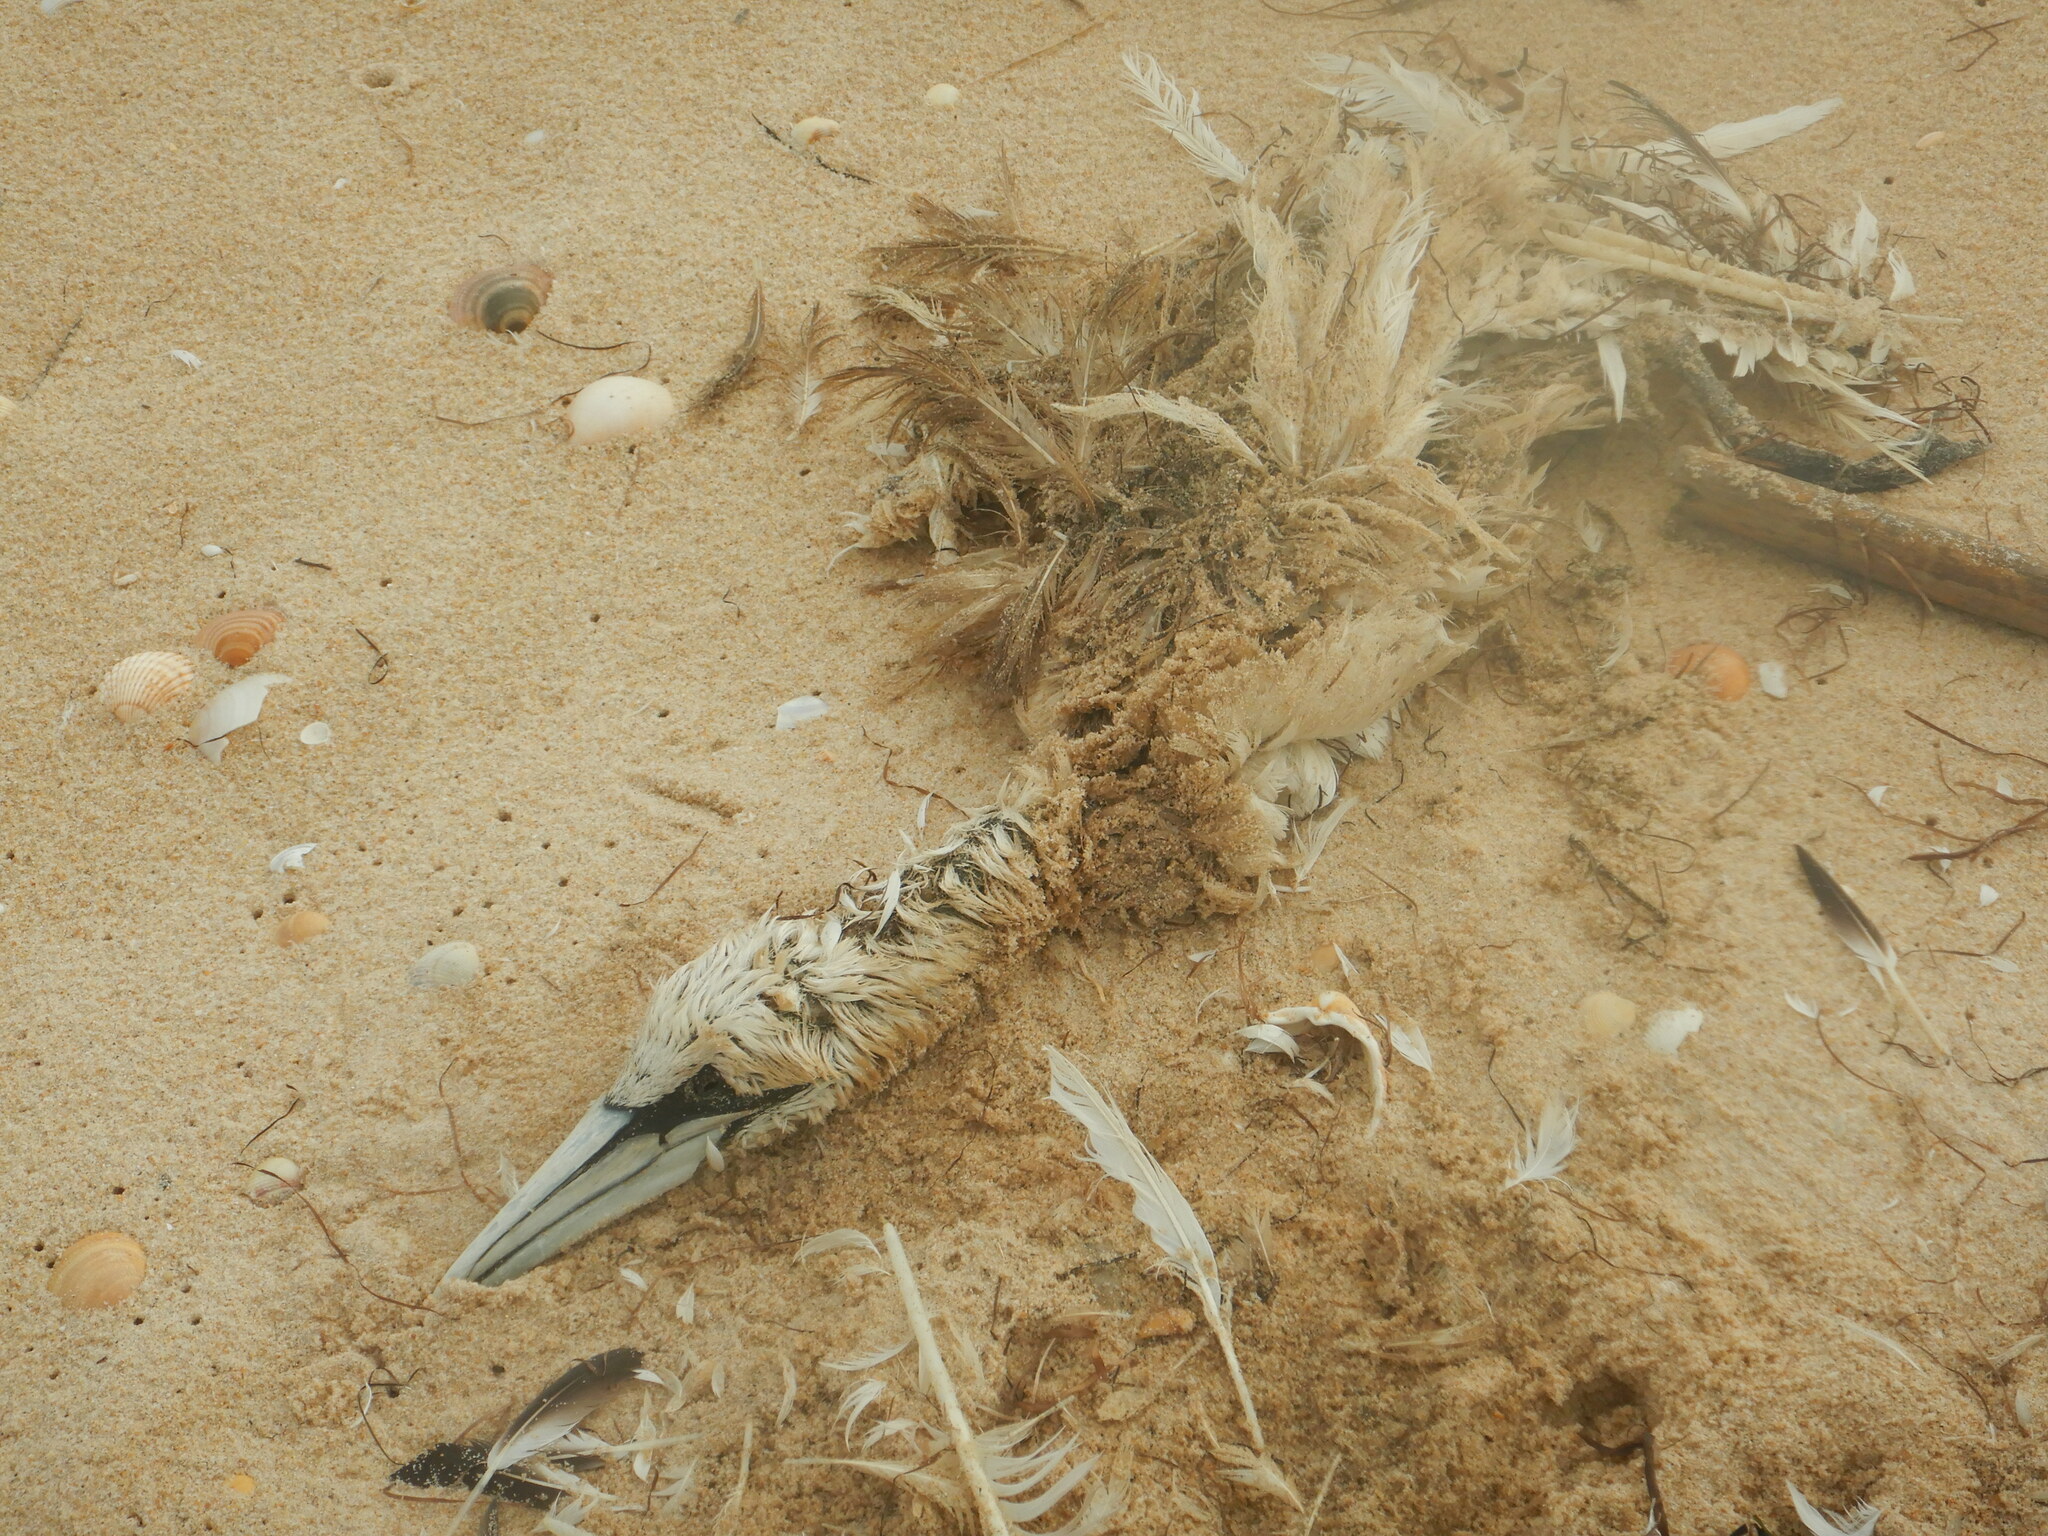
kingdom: Animalia
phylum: Chordata
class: Aves
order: Suliformes
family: Sulidae
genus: Morus
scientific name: Morus bassanus
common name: Northern gannet
